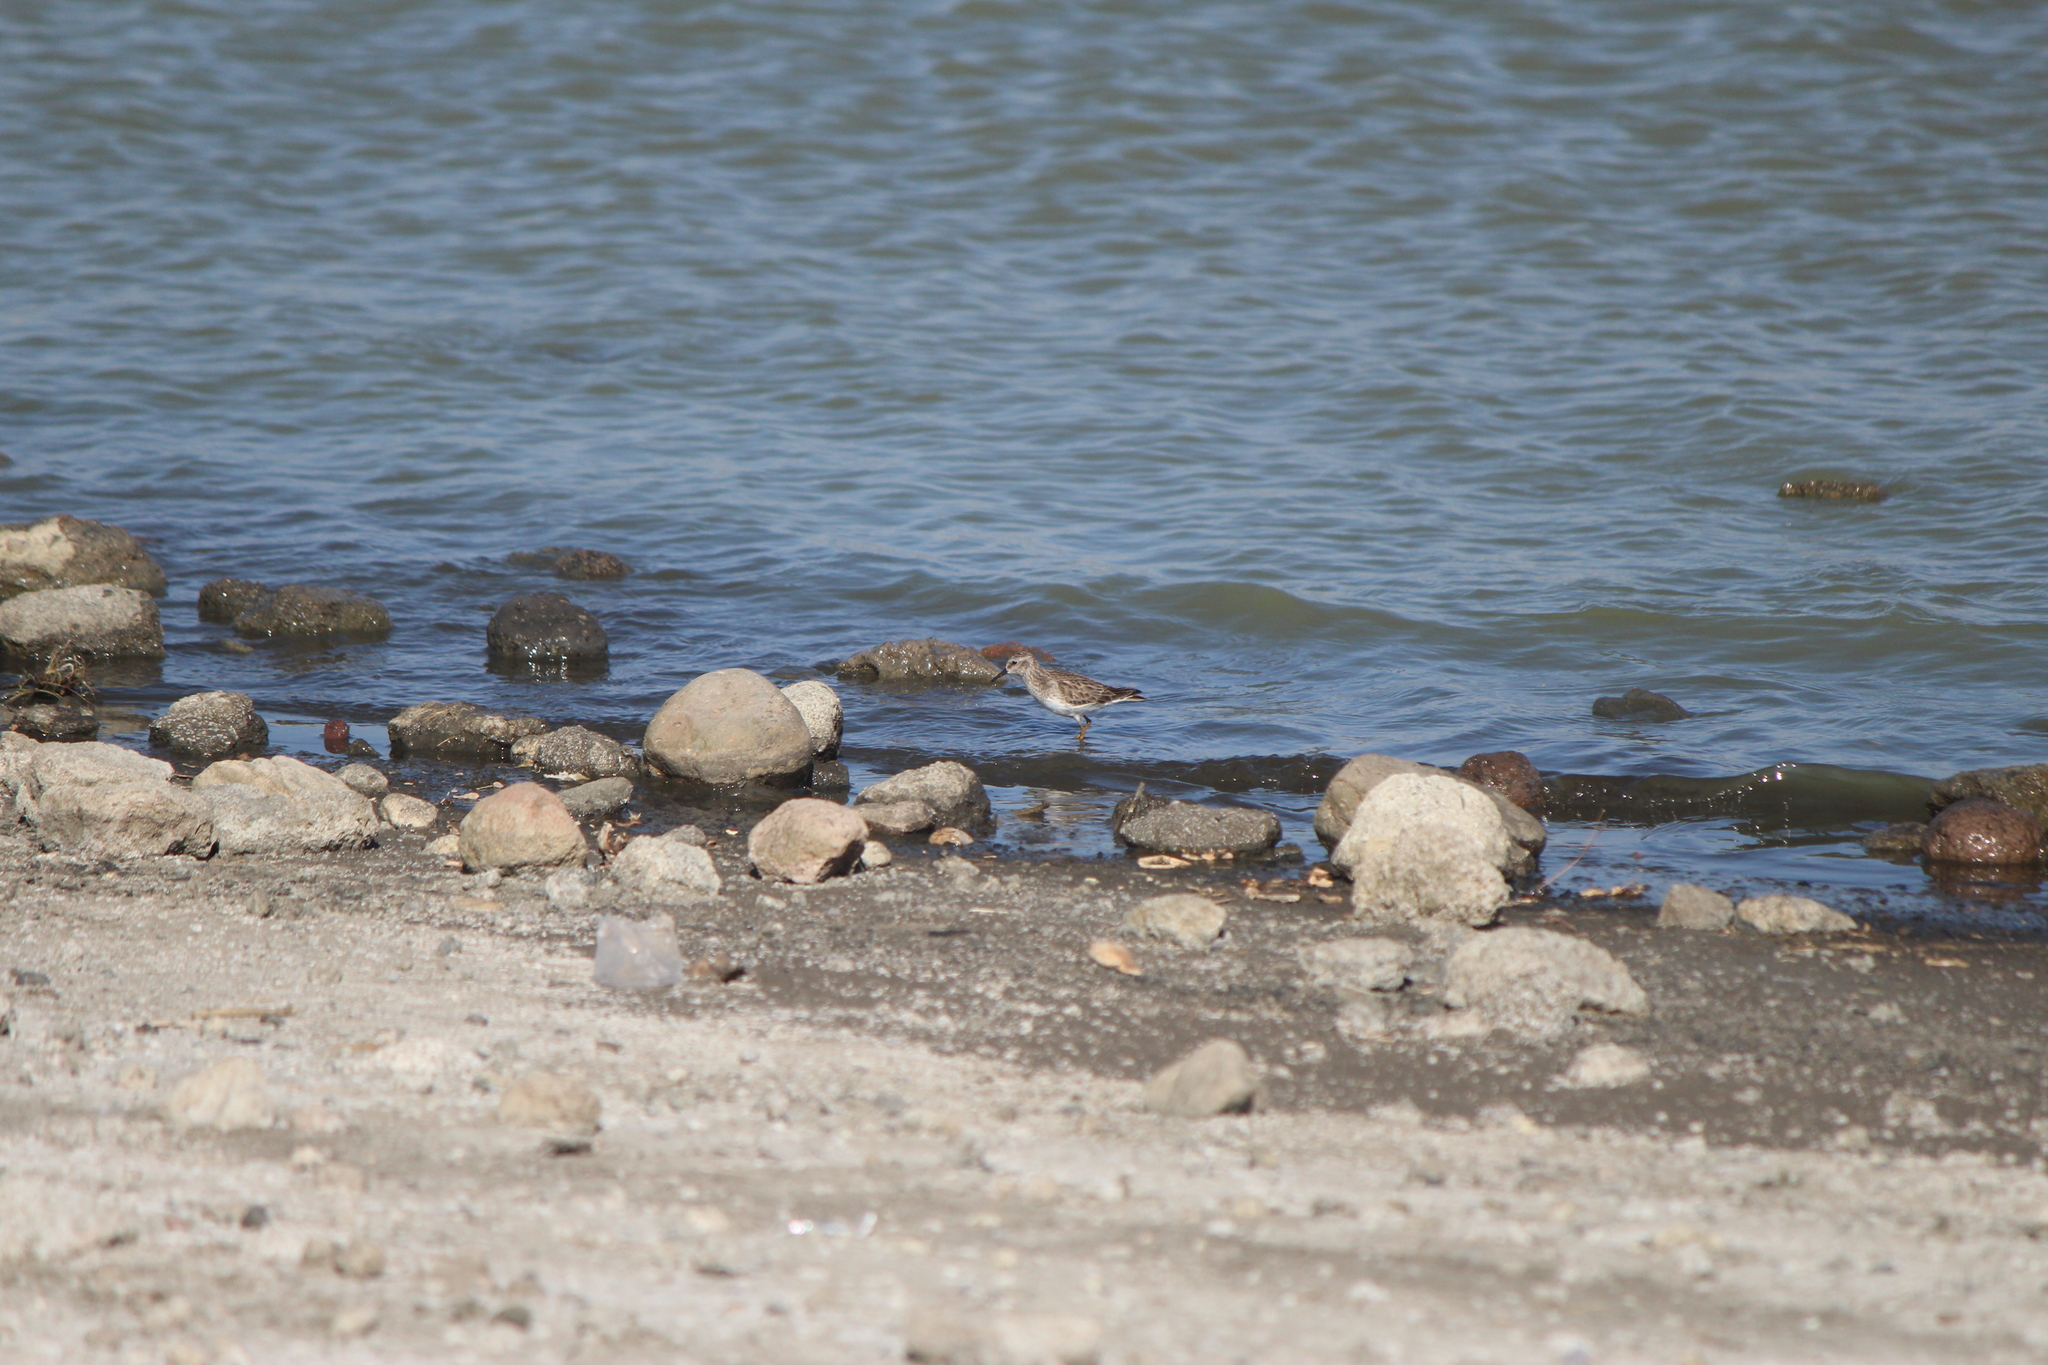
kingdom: Animalia
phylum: Chordata
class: Aves
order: Charadriiformes
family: Scolopacidae
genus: Calidris
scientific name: Calidris minutilla
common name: Least sandpiper
